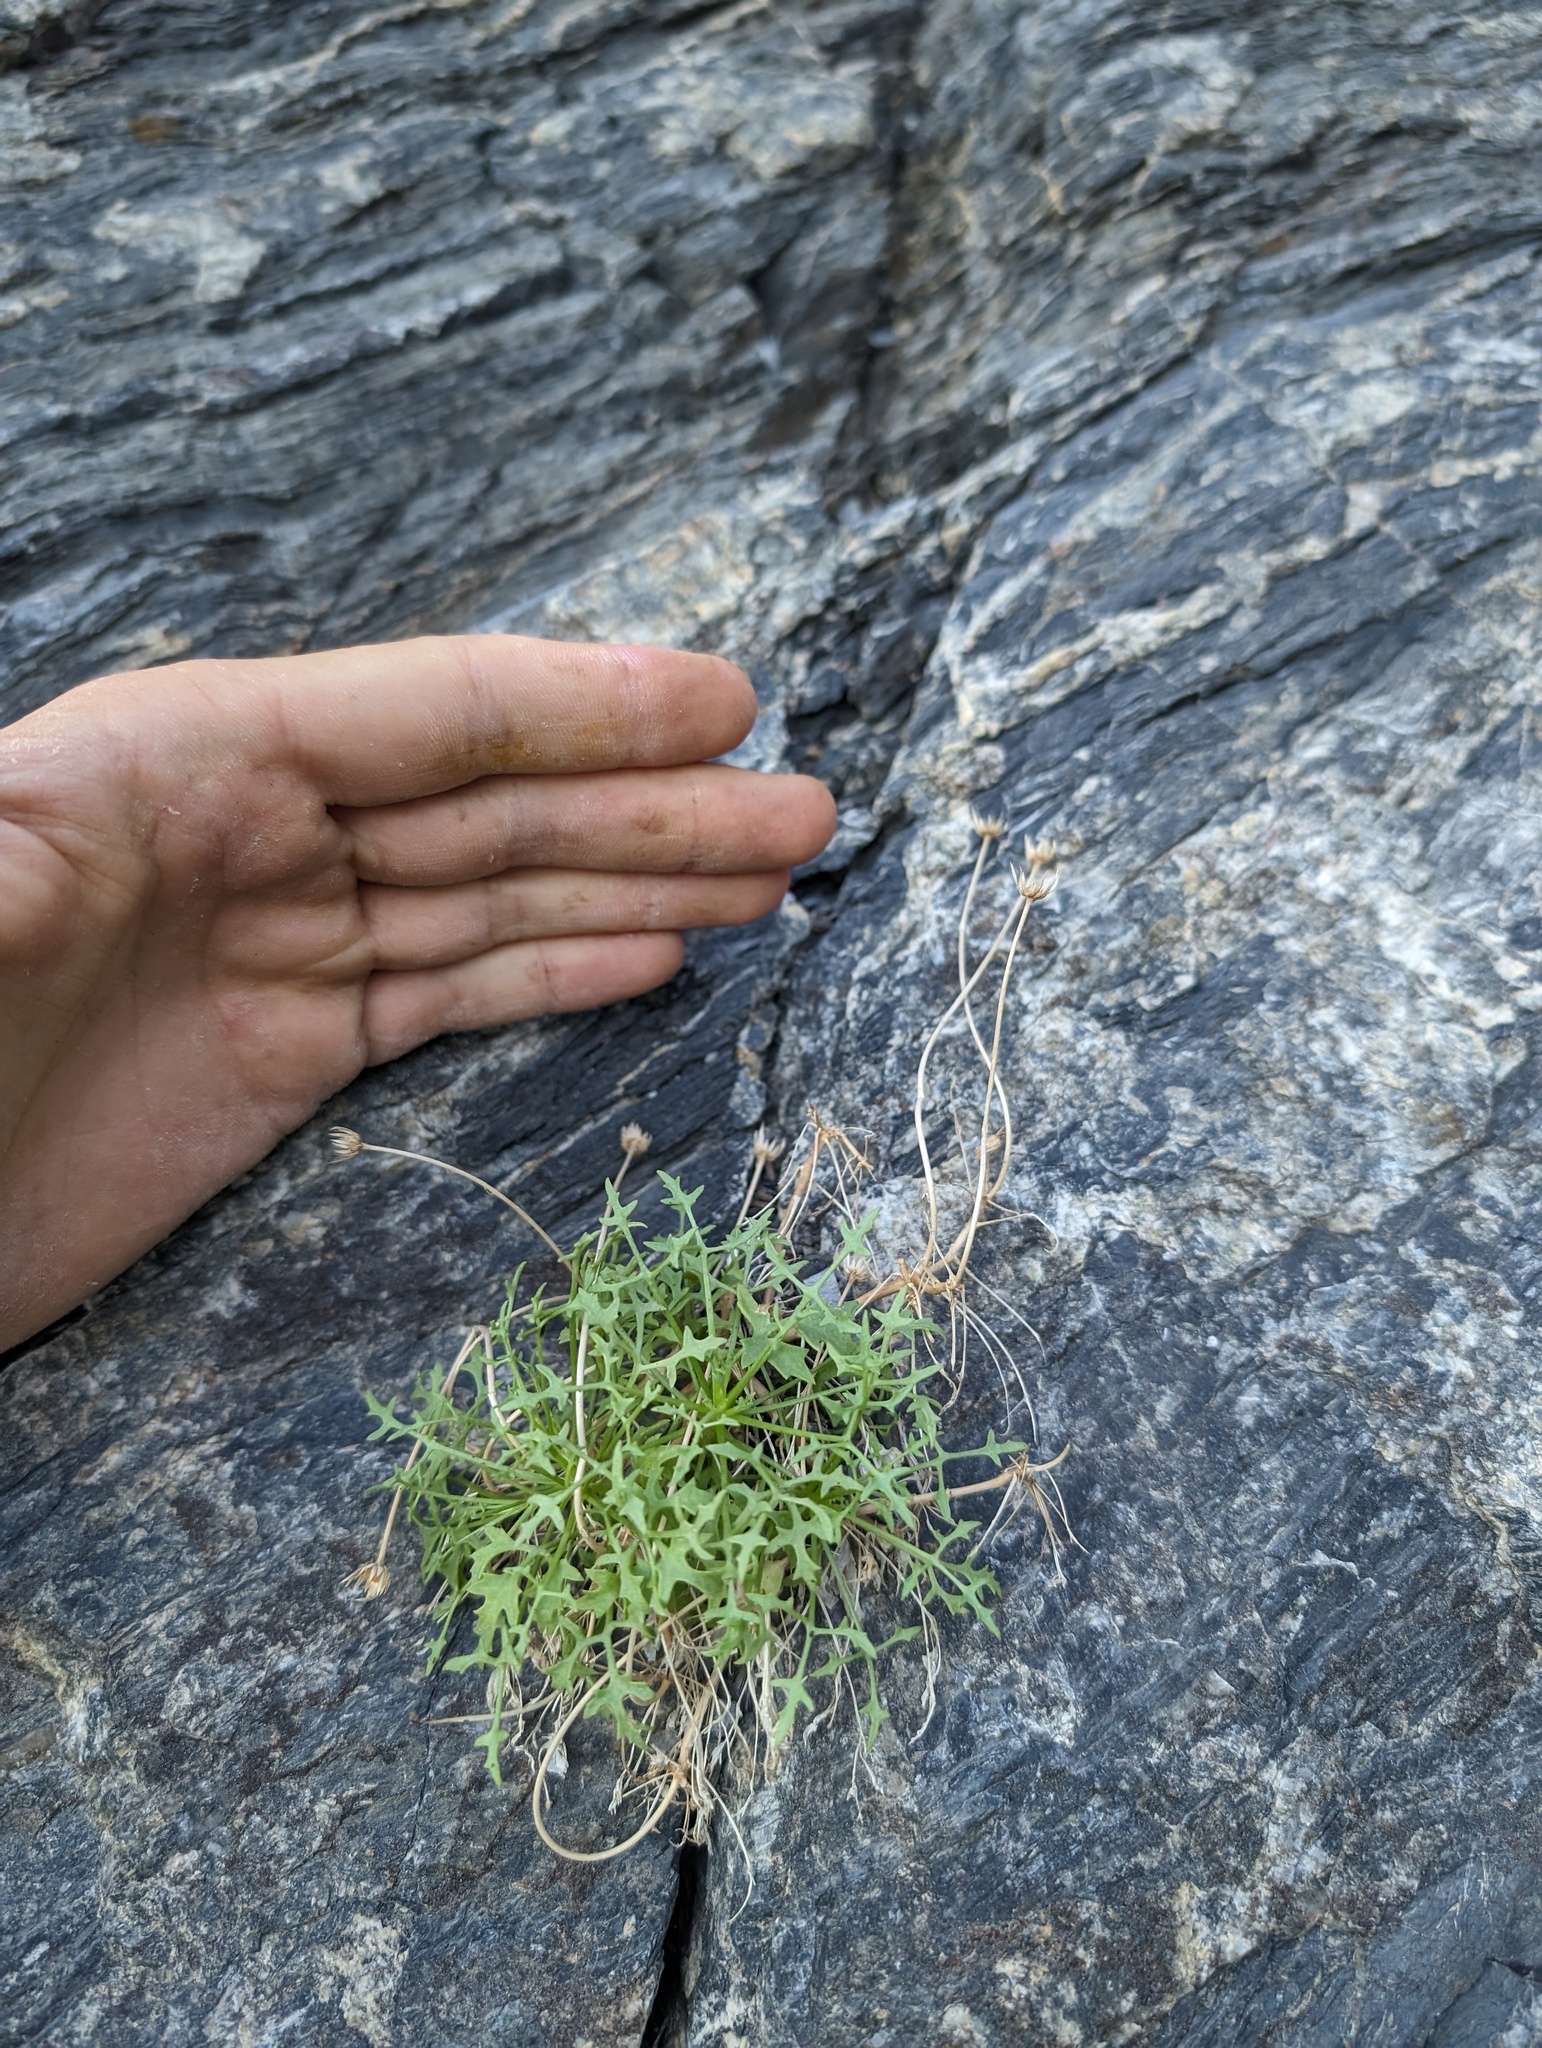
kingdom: Plantae
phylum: Tracheophyta
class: Magnoliopsida
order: Asterales
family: Asteraceae
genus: Hofmeisteria
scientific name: Hofmeisteria fasciculata
